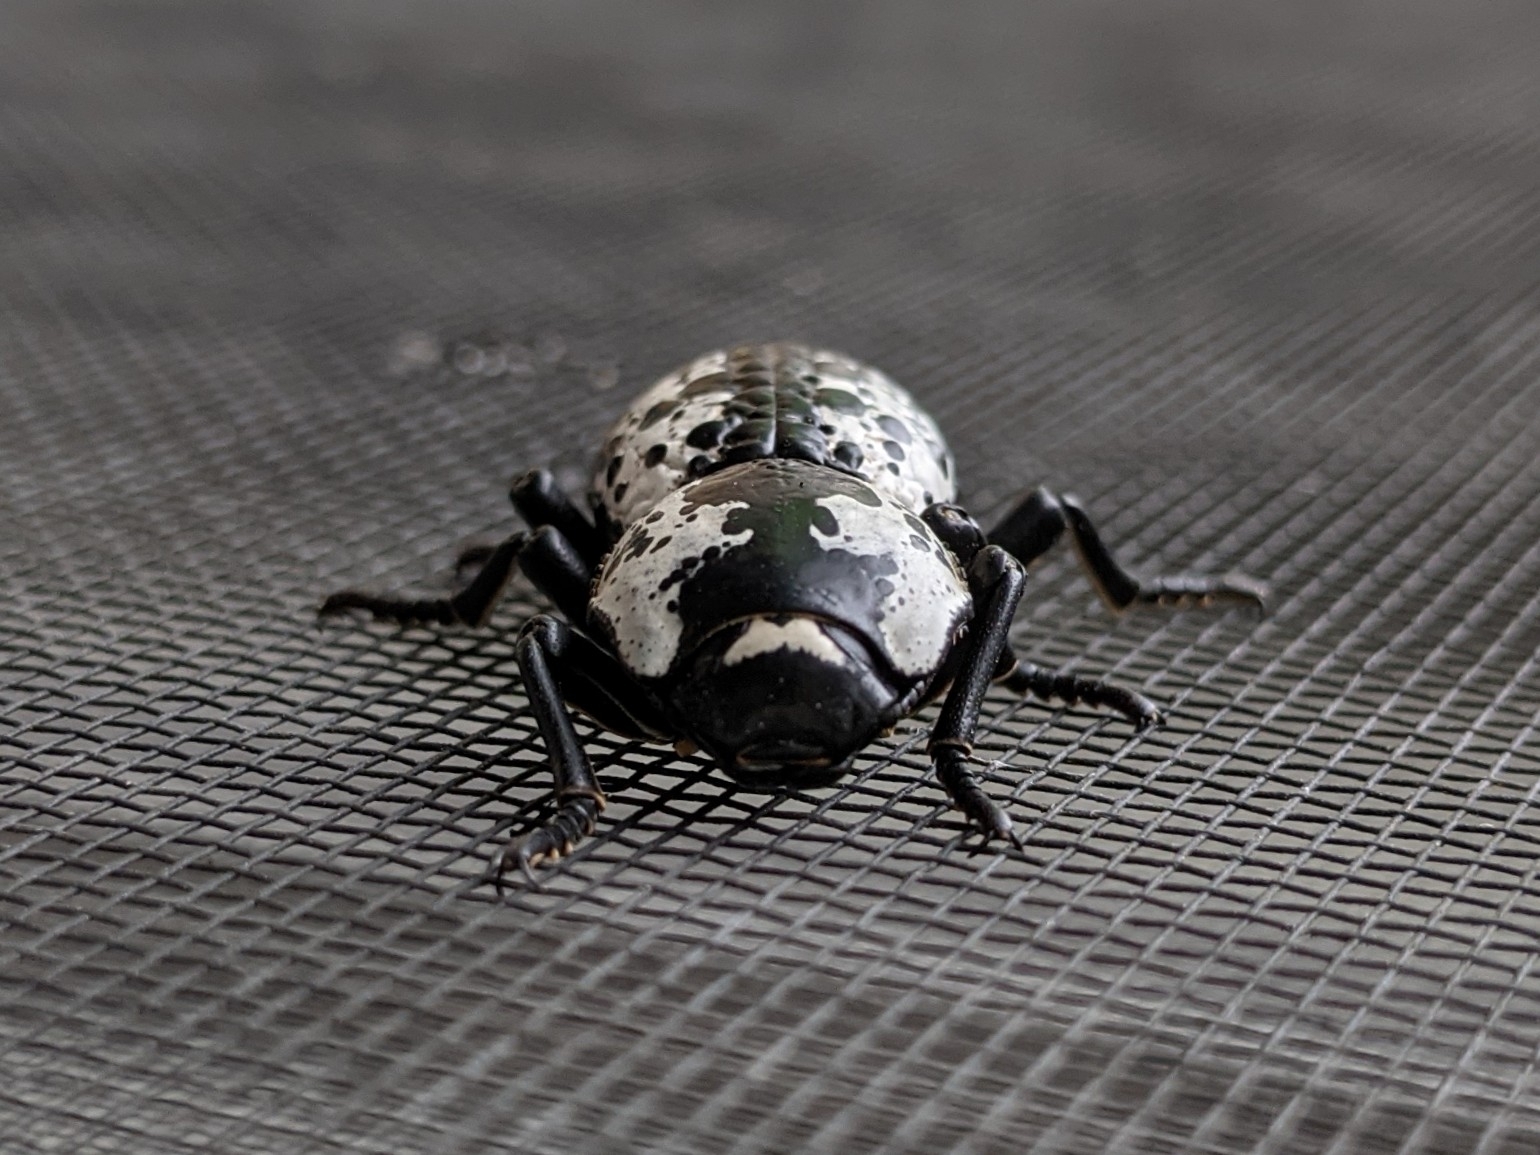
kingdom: Animalia
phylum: Arthropoda
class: Insecta
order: Coleoptera
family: Zopheridae
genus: Zopherus
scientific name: Zopherus nodulosus
